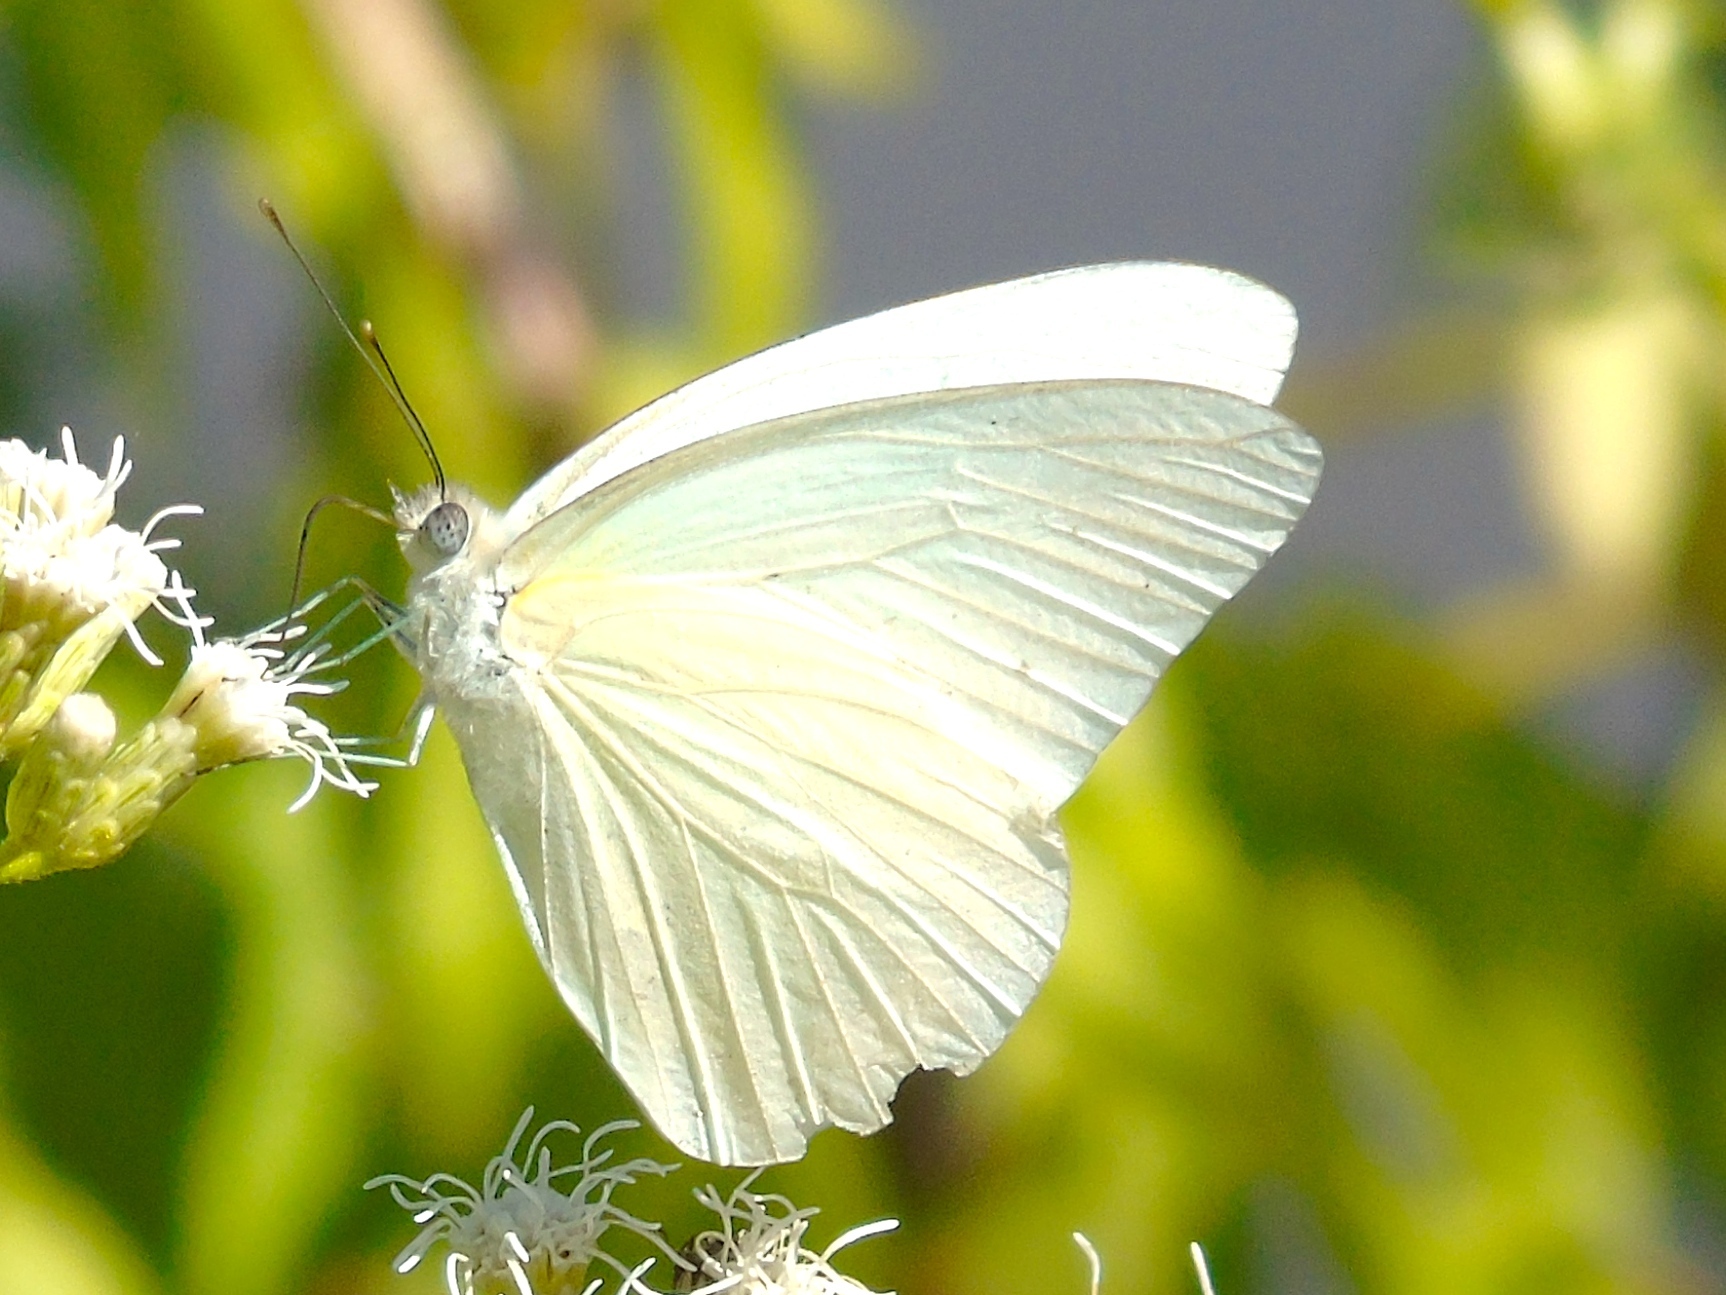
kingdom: Animalia
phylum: Arthropoda
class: Insecta
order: Lepidoptera
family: Pieridae
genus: Glutophrissa
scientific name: Glutophrissa drusilla
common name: Florida white
